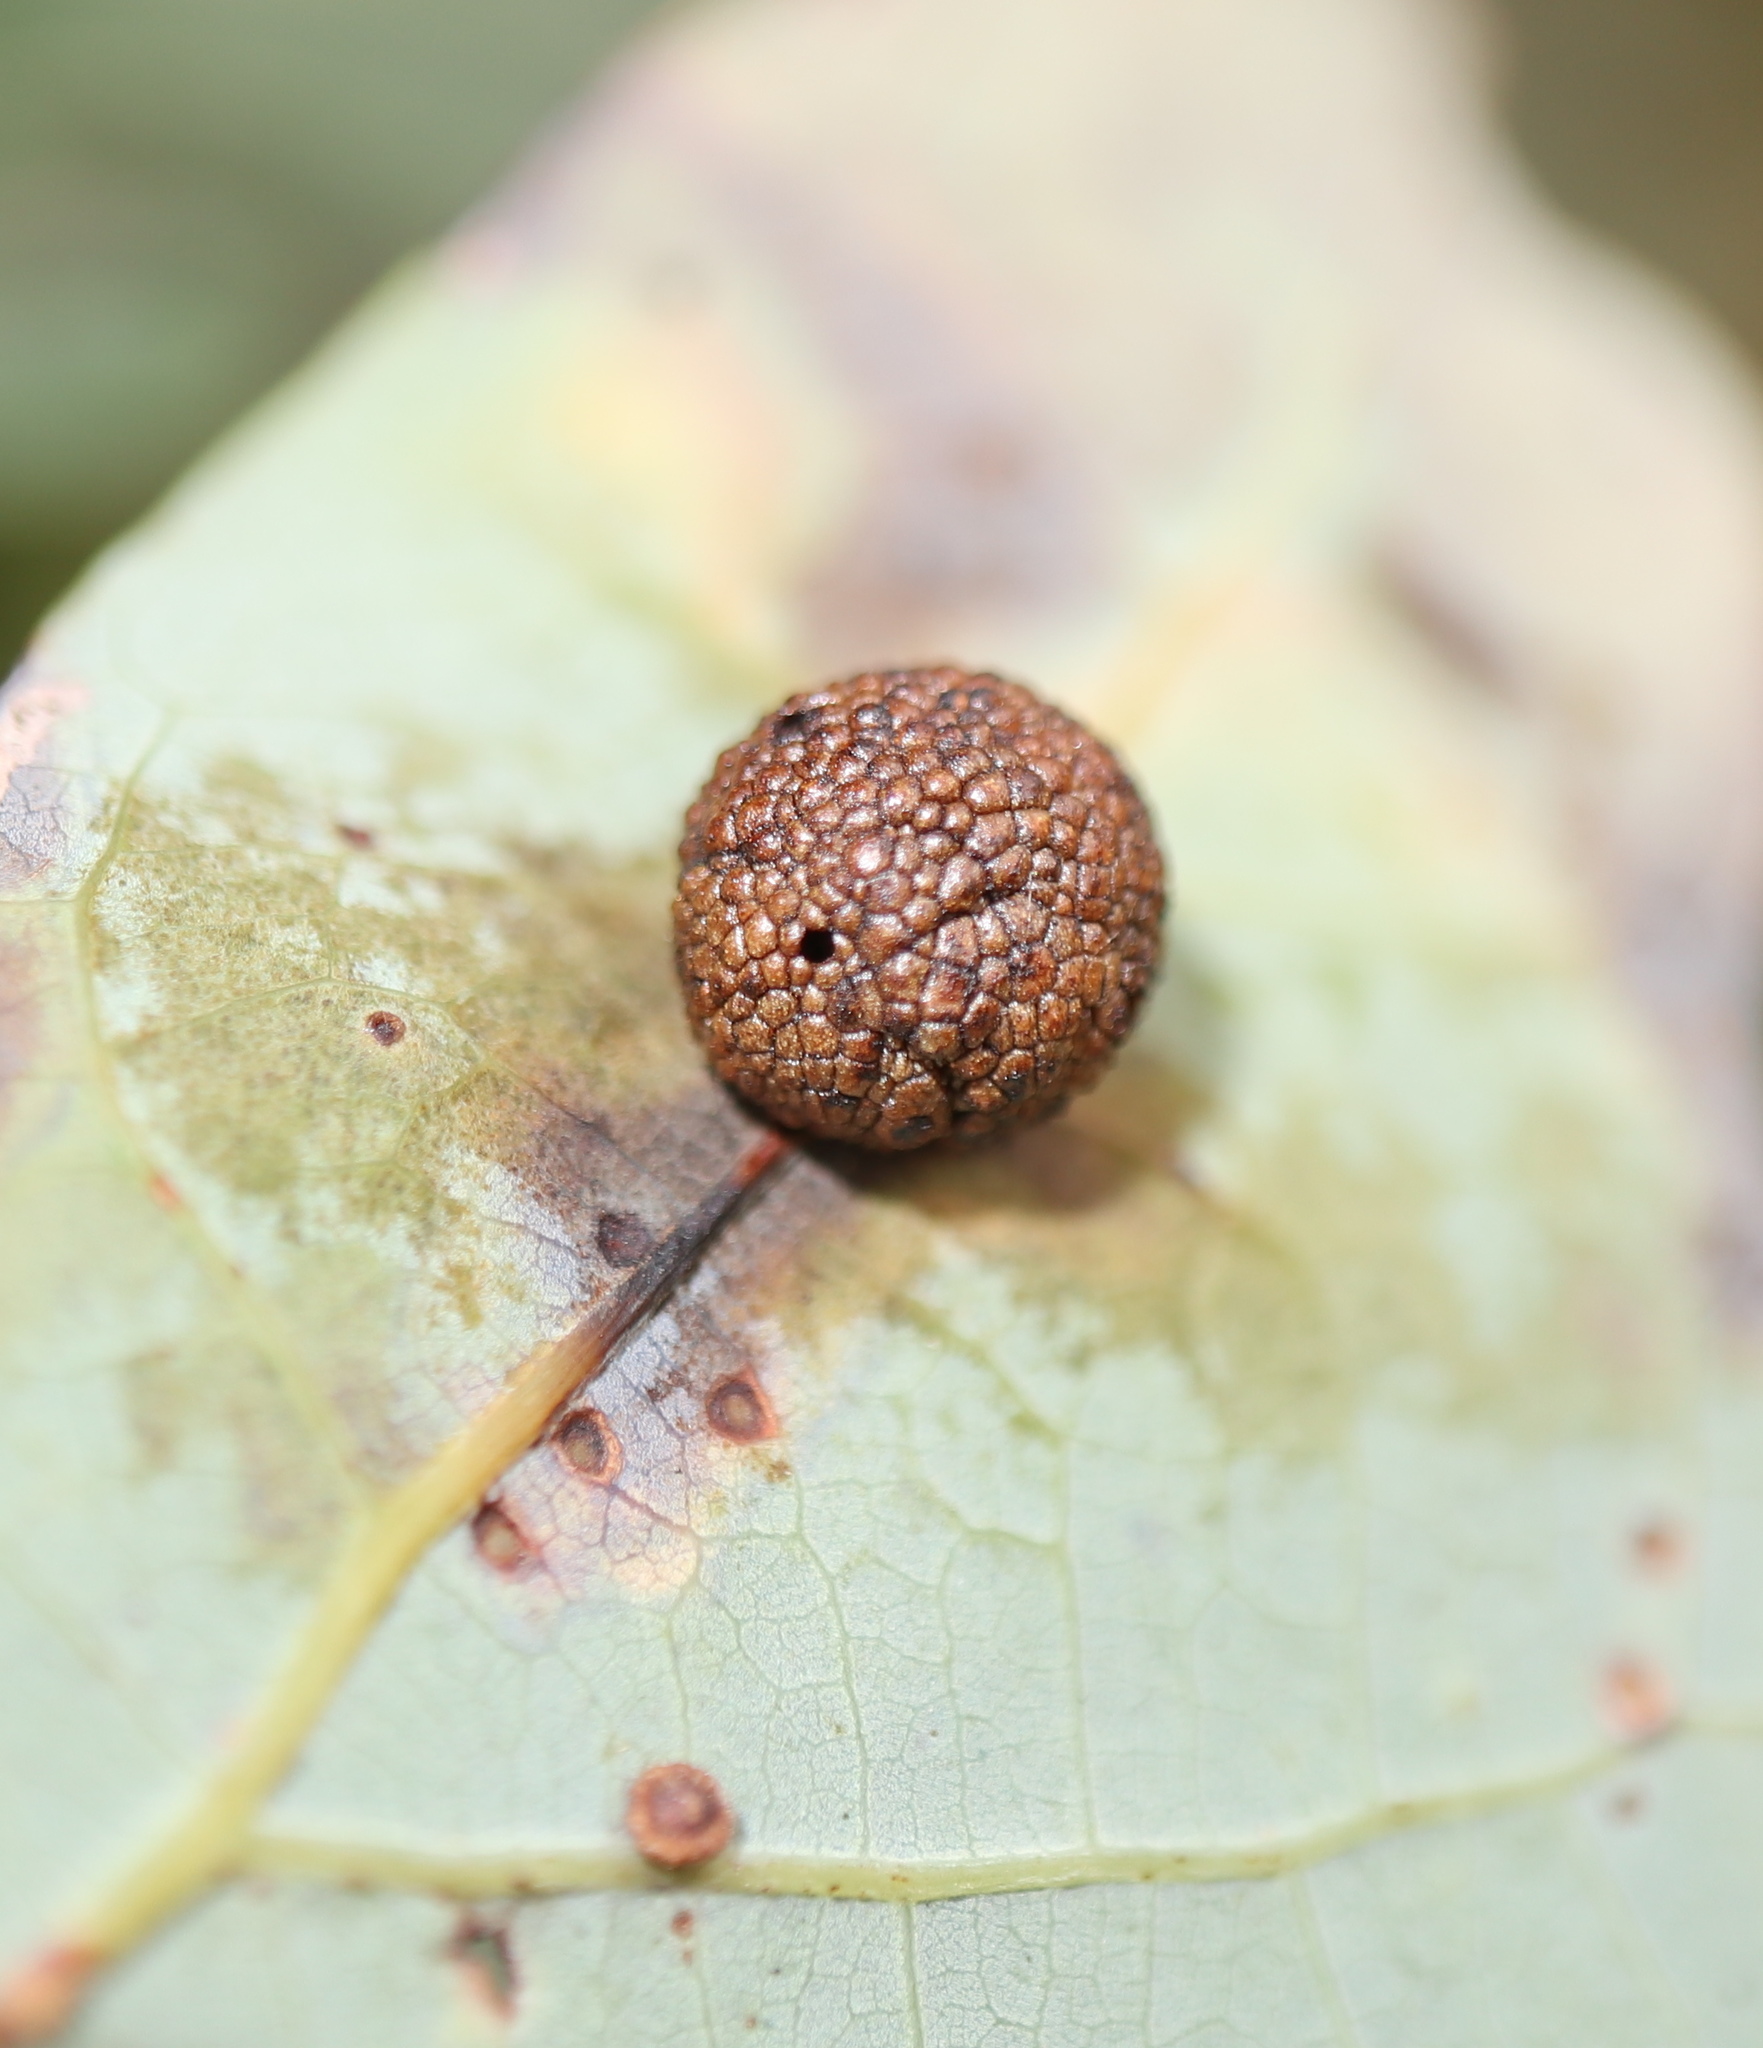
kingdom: Animalia
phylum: Arthropoda
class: Insecta
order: Hymenoptera
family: Cynipidae
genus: Acraspis
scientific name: Acraspis
